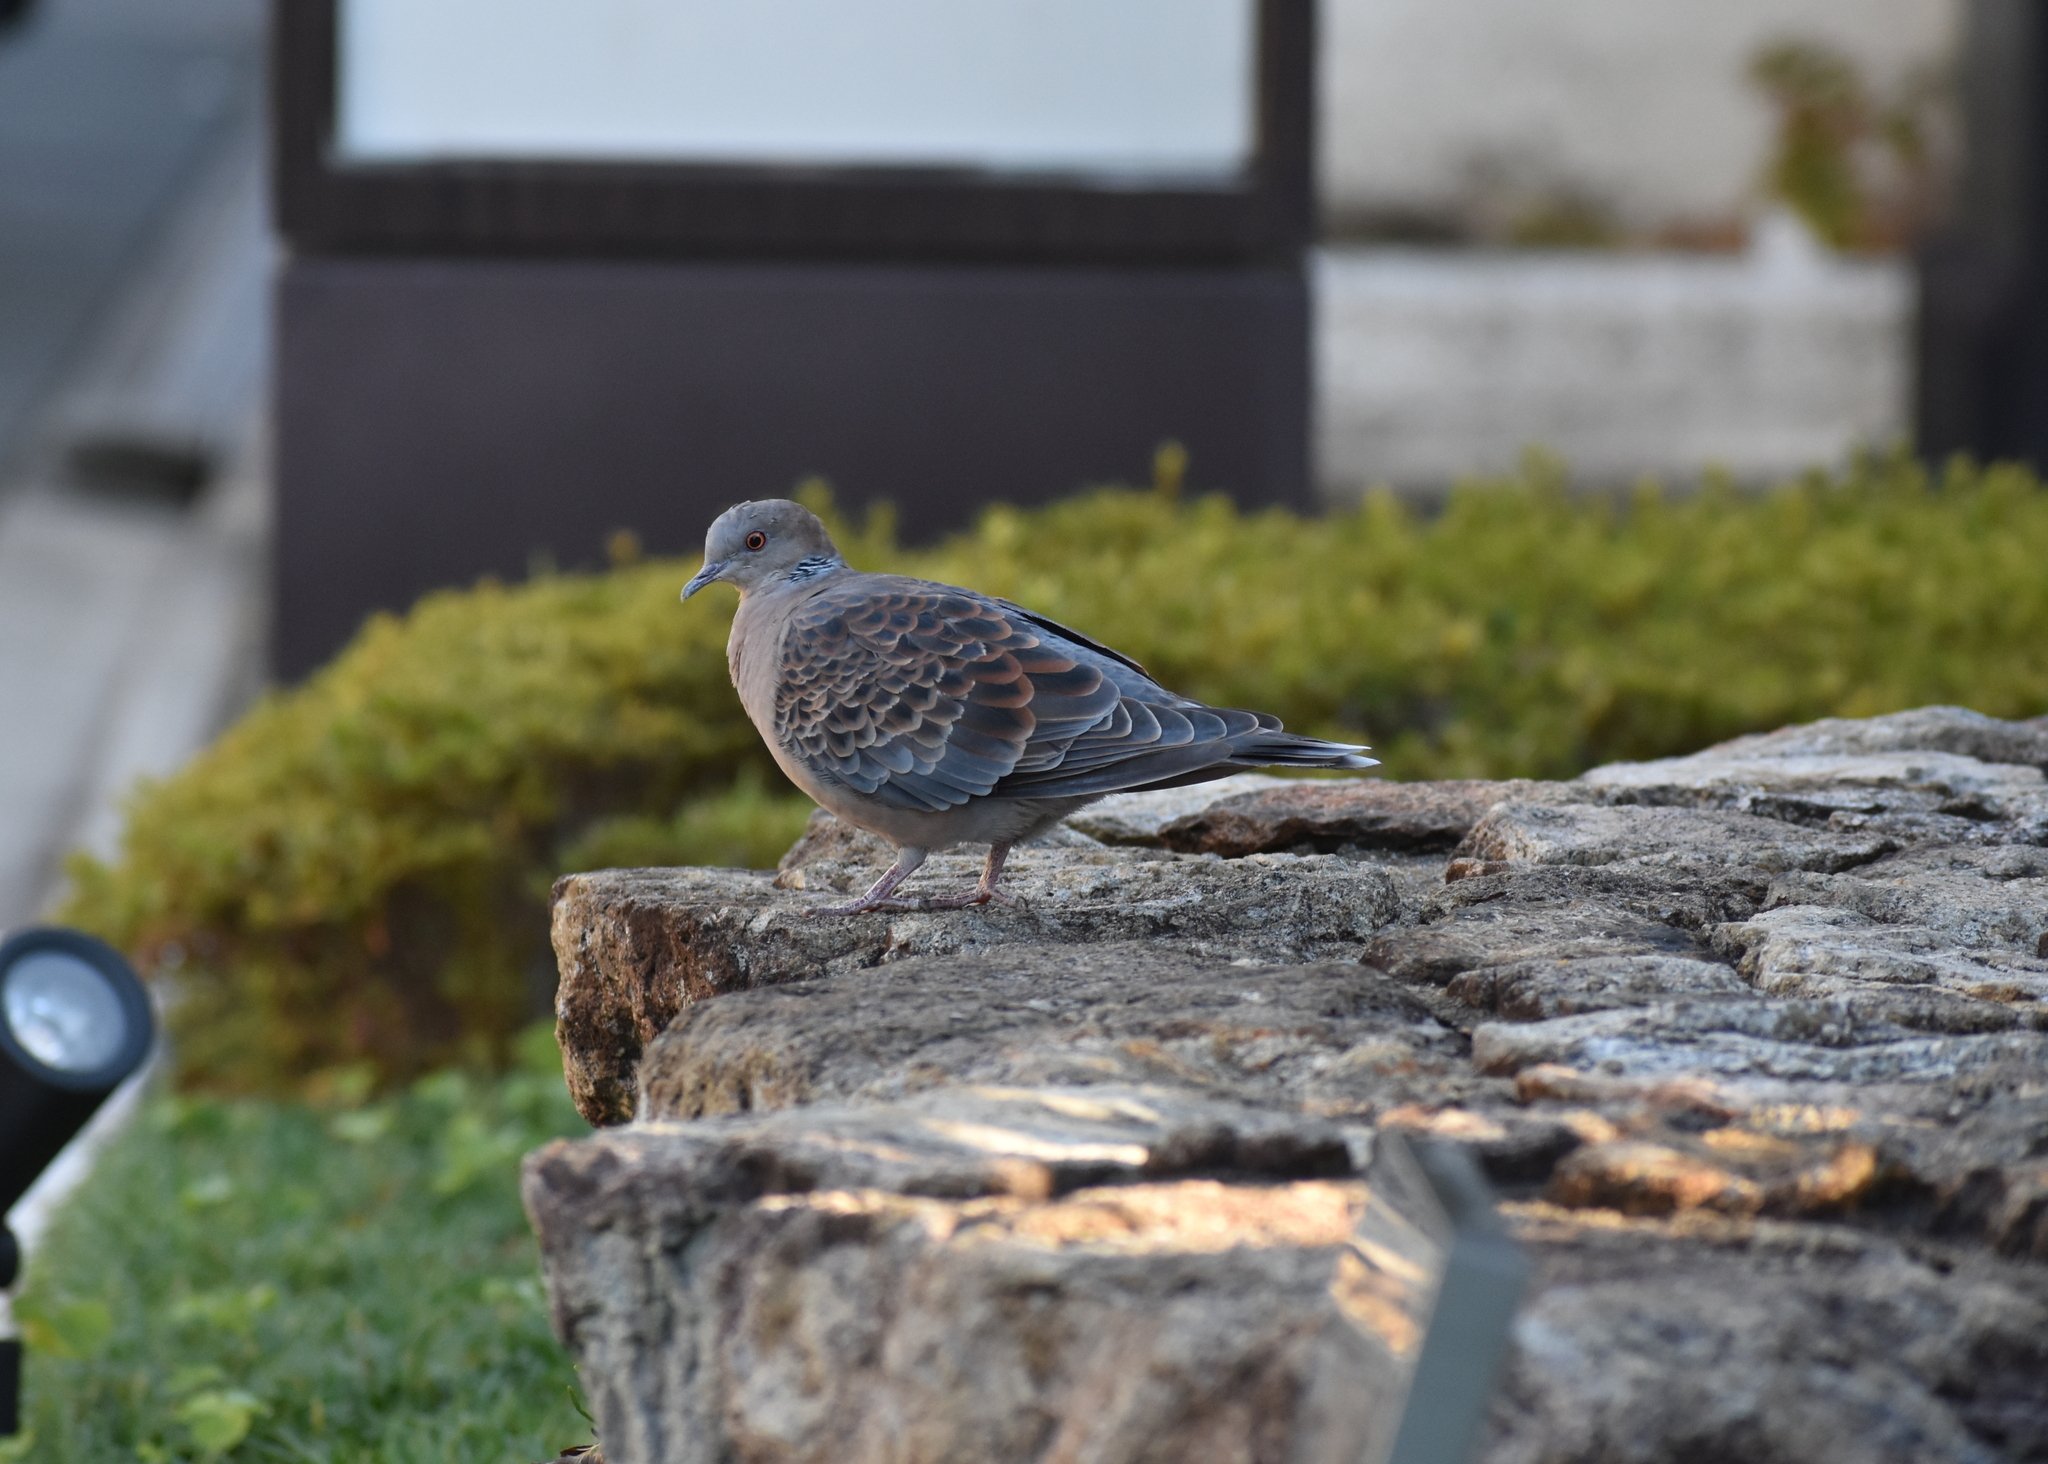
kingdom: Animalia
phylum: Chordata
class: Aves
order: Columbiformes
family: Columbidae
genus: Streptopelia
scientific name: Streptopelia orientalis
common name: Oriental turtle dove
